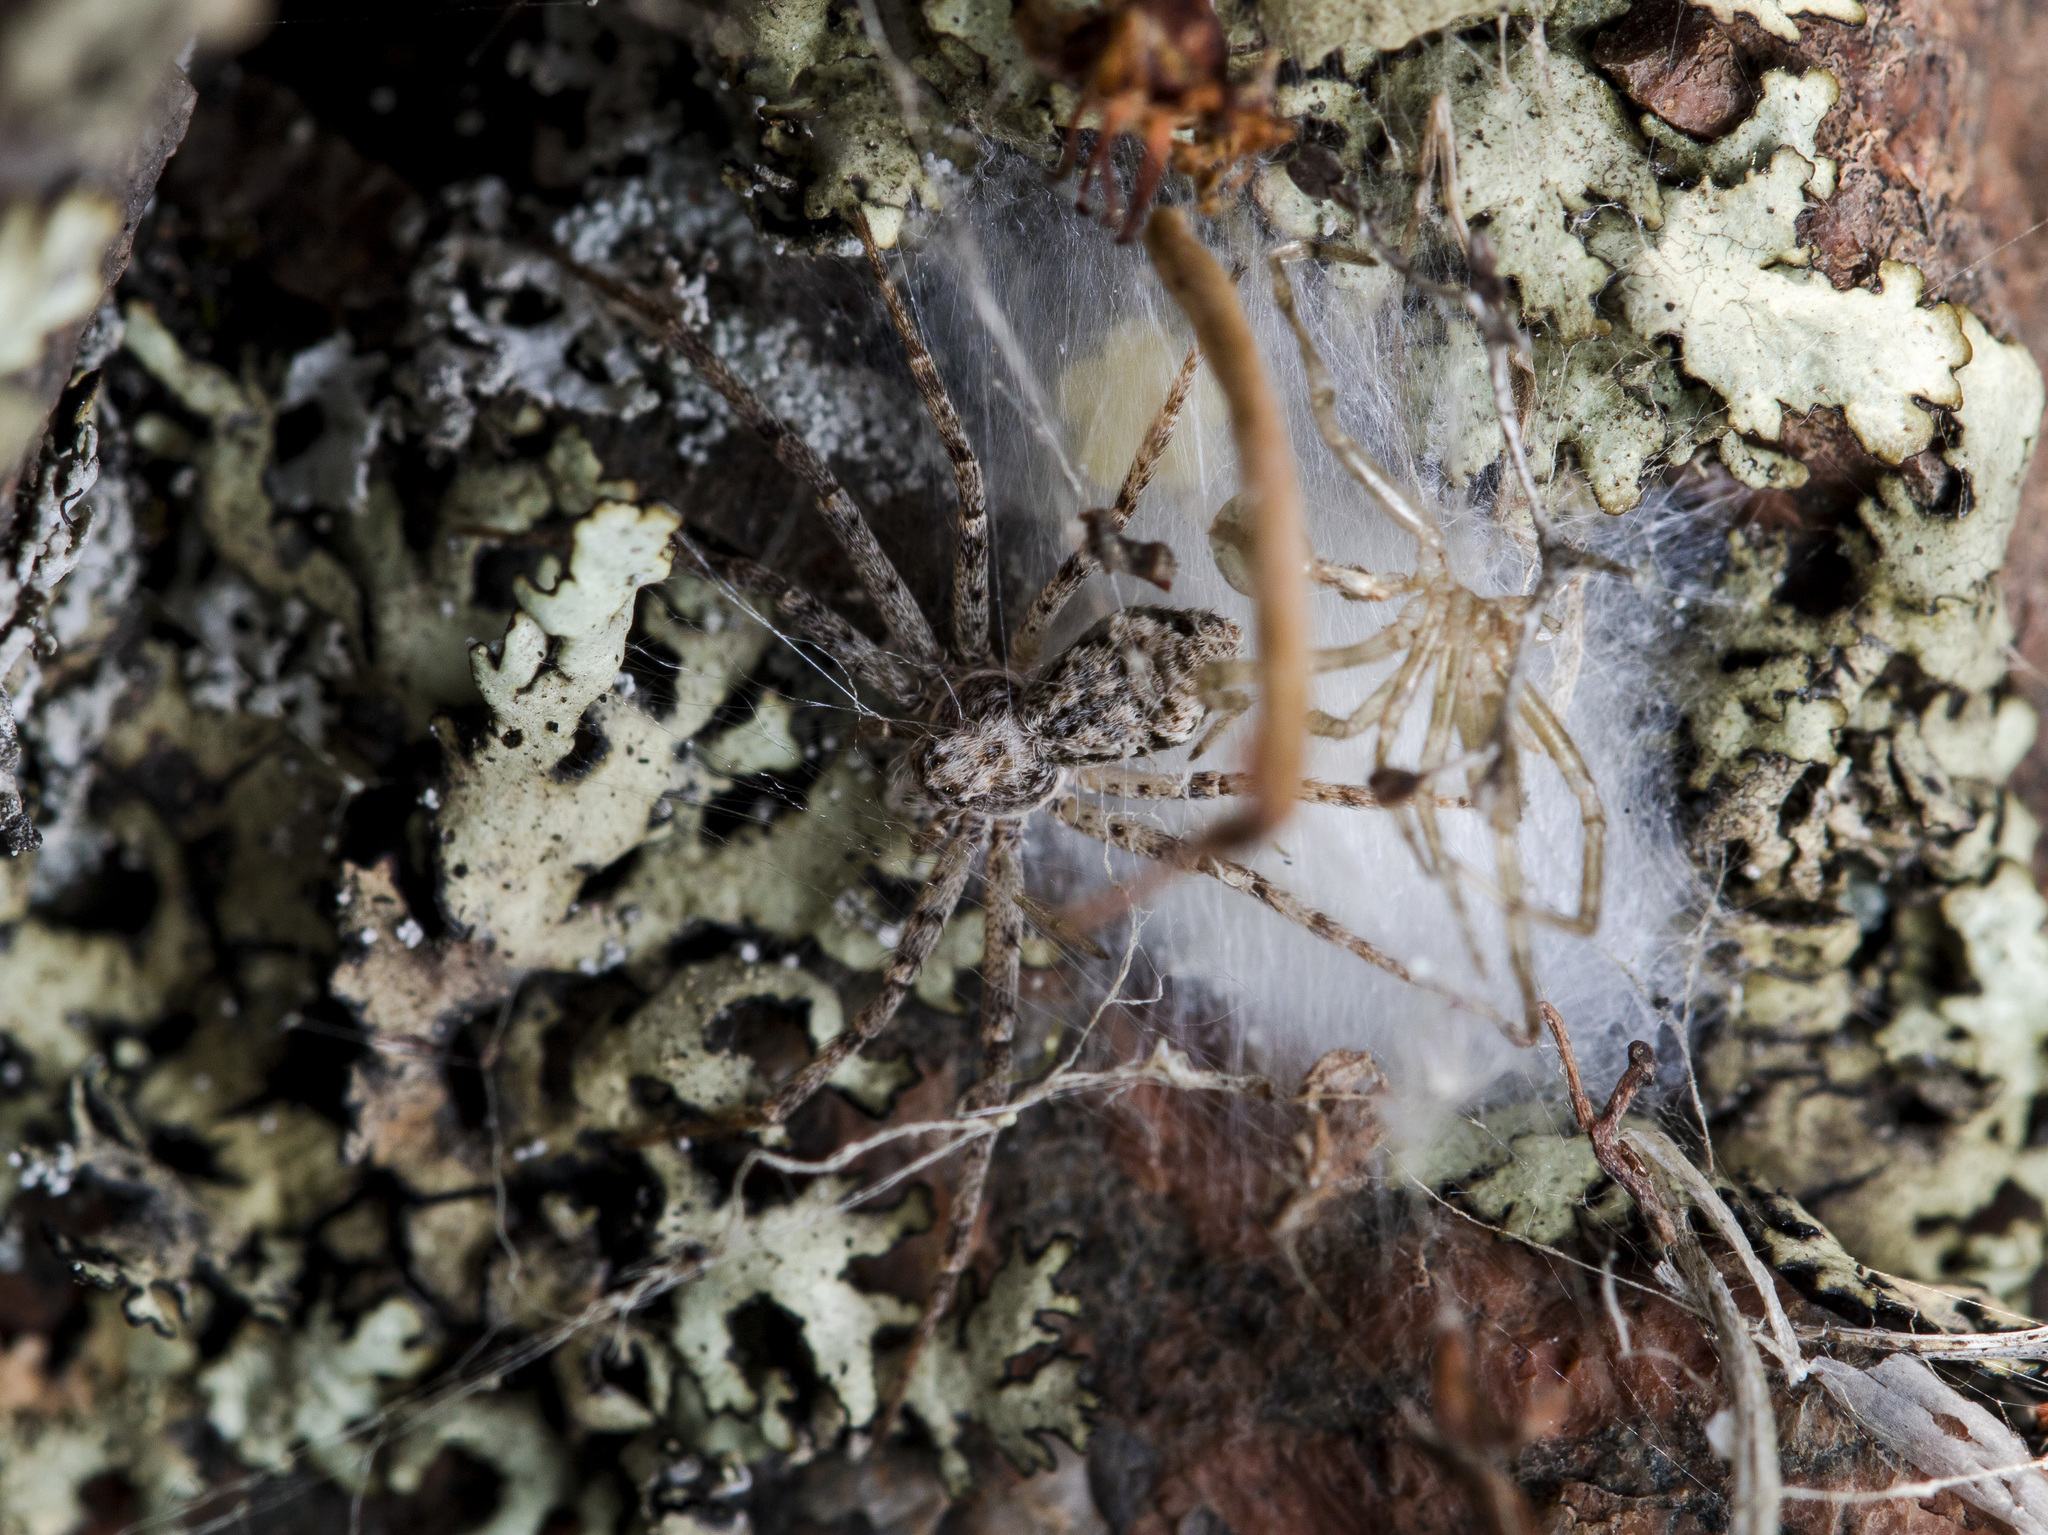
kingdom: Animalia
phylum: Arthropoda
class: Arachnida
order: Araneae
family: Philodromidae
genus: Rhysodromus
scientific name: Rhysodromus pictus
